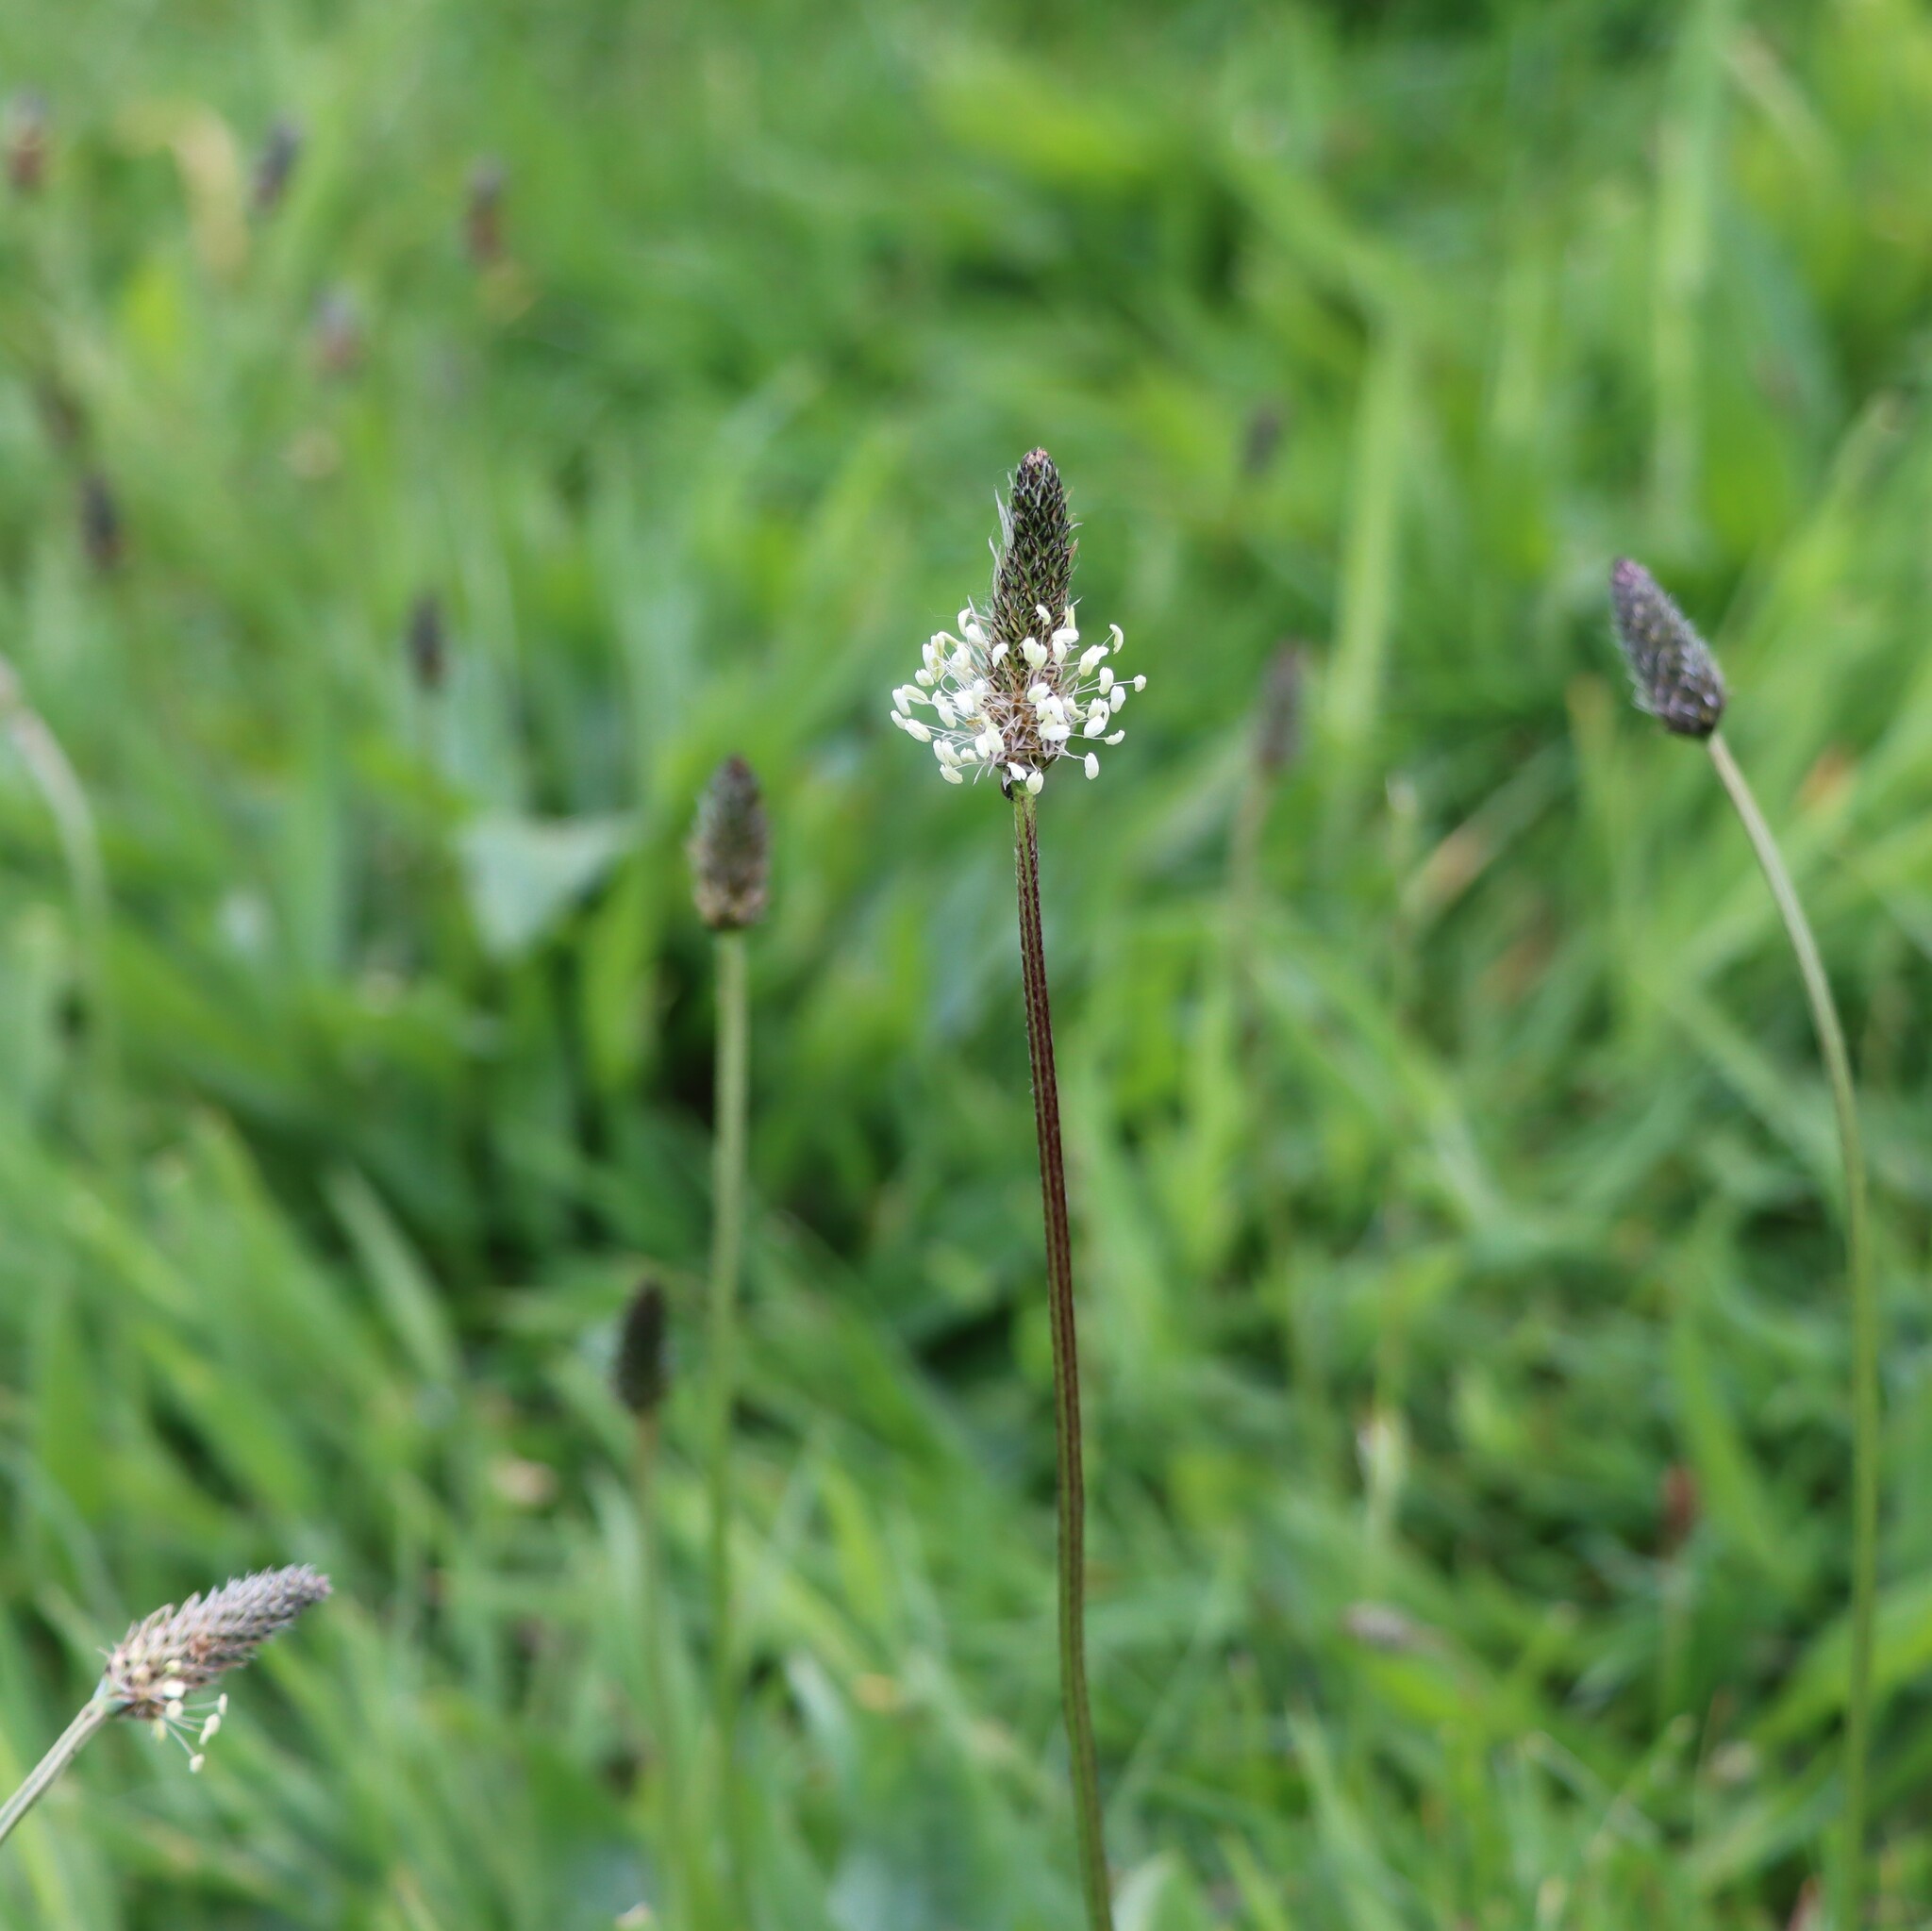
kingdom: Plantae
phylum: Tracheophyta
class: Magnoliopsida
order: Lamiales
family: Plantaginaceae
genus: Plantago
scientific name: Plantago lanceolata
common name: Ribwort plantain
